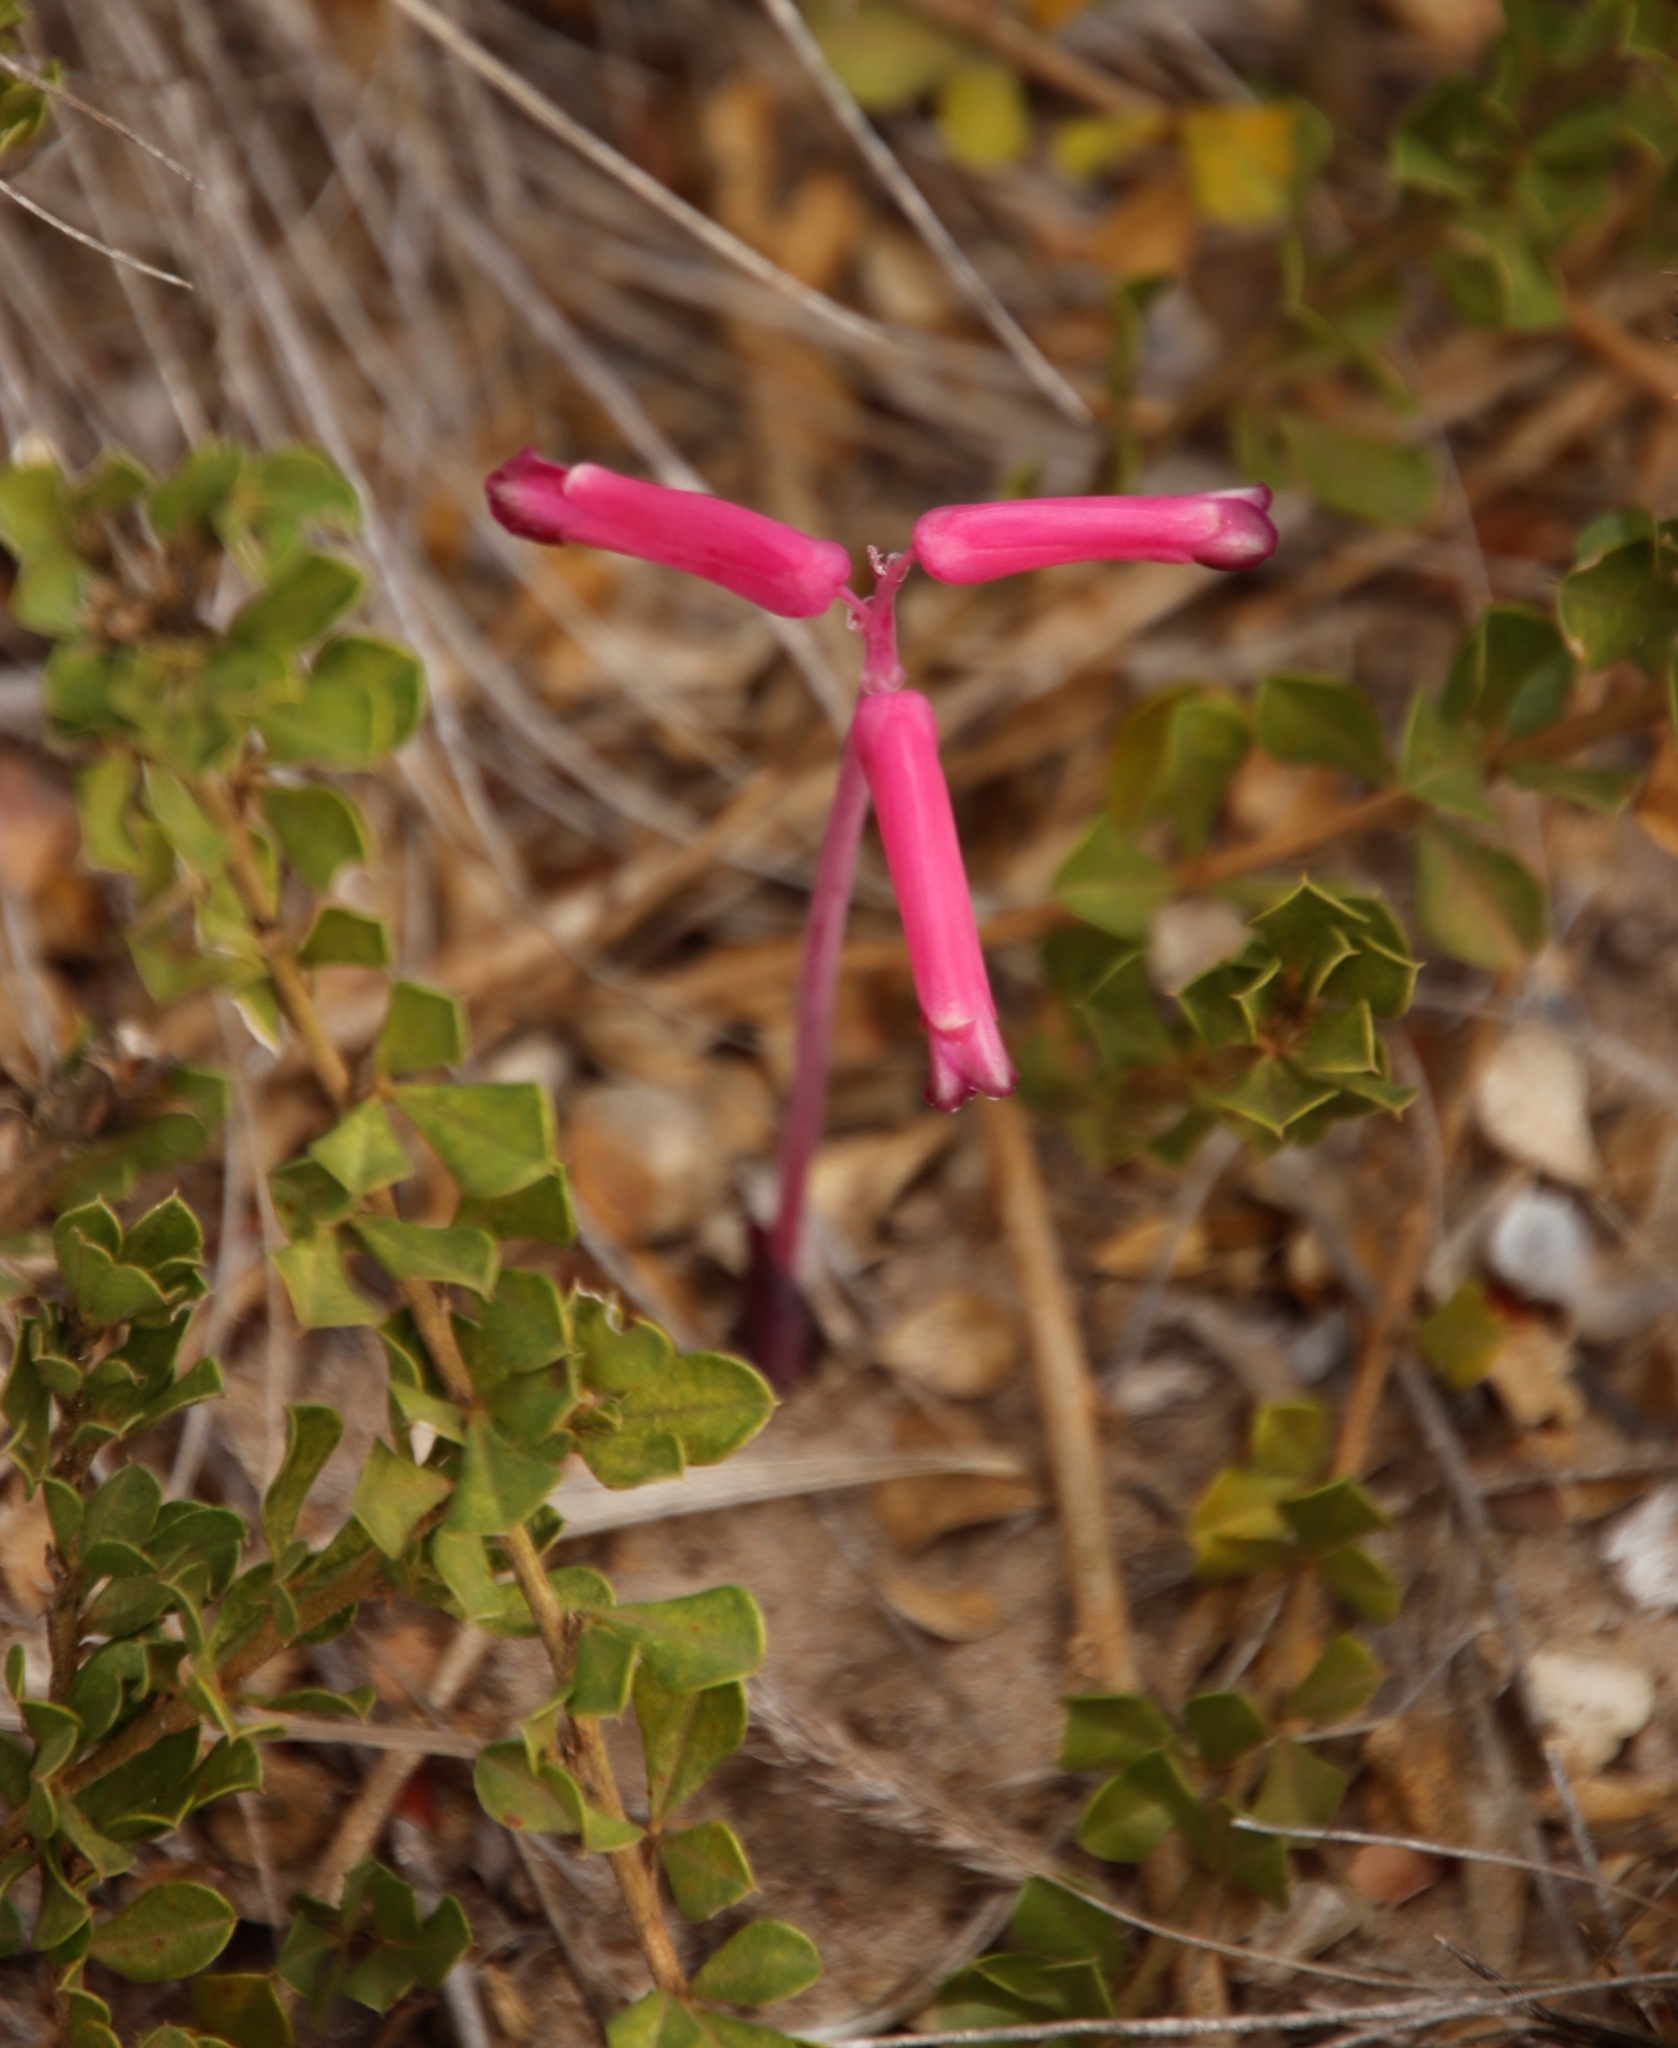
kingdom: Plantae
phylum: Tracheophyta
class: Liliopsida
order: Asparagales
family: Asparagaceae
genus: Lachenalia
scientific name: Lachenalia punctata
